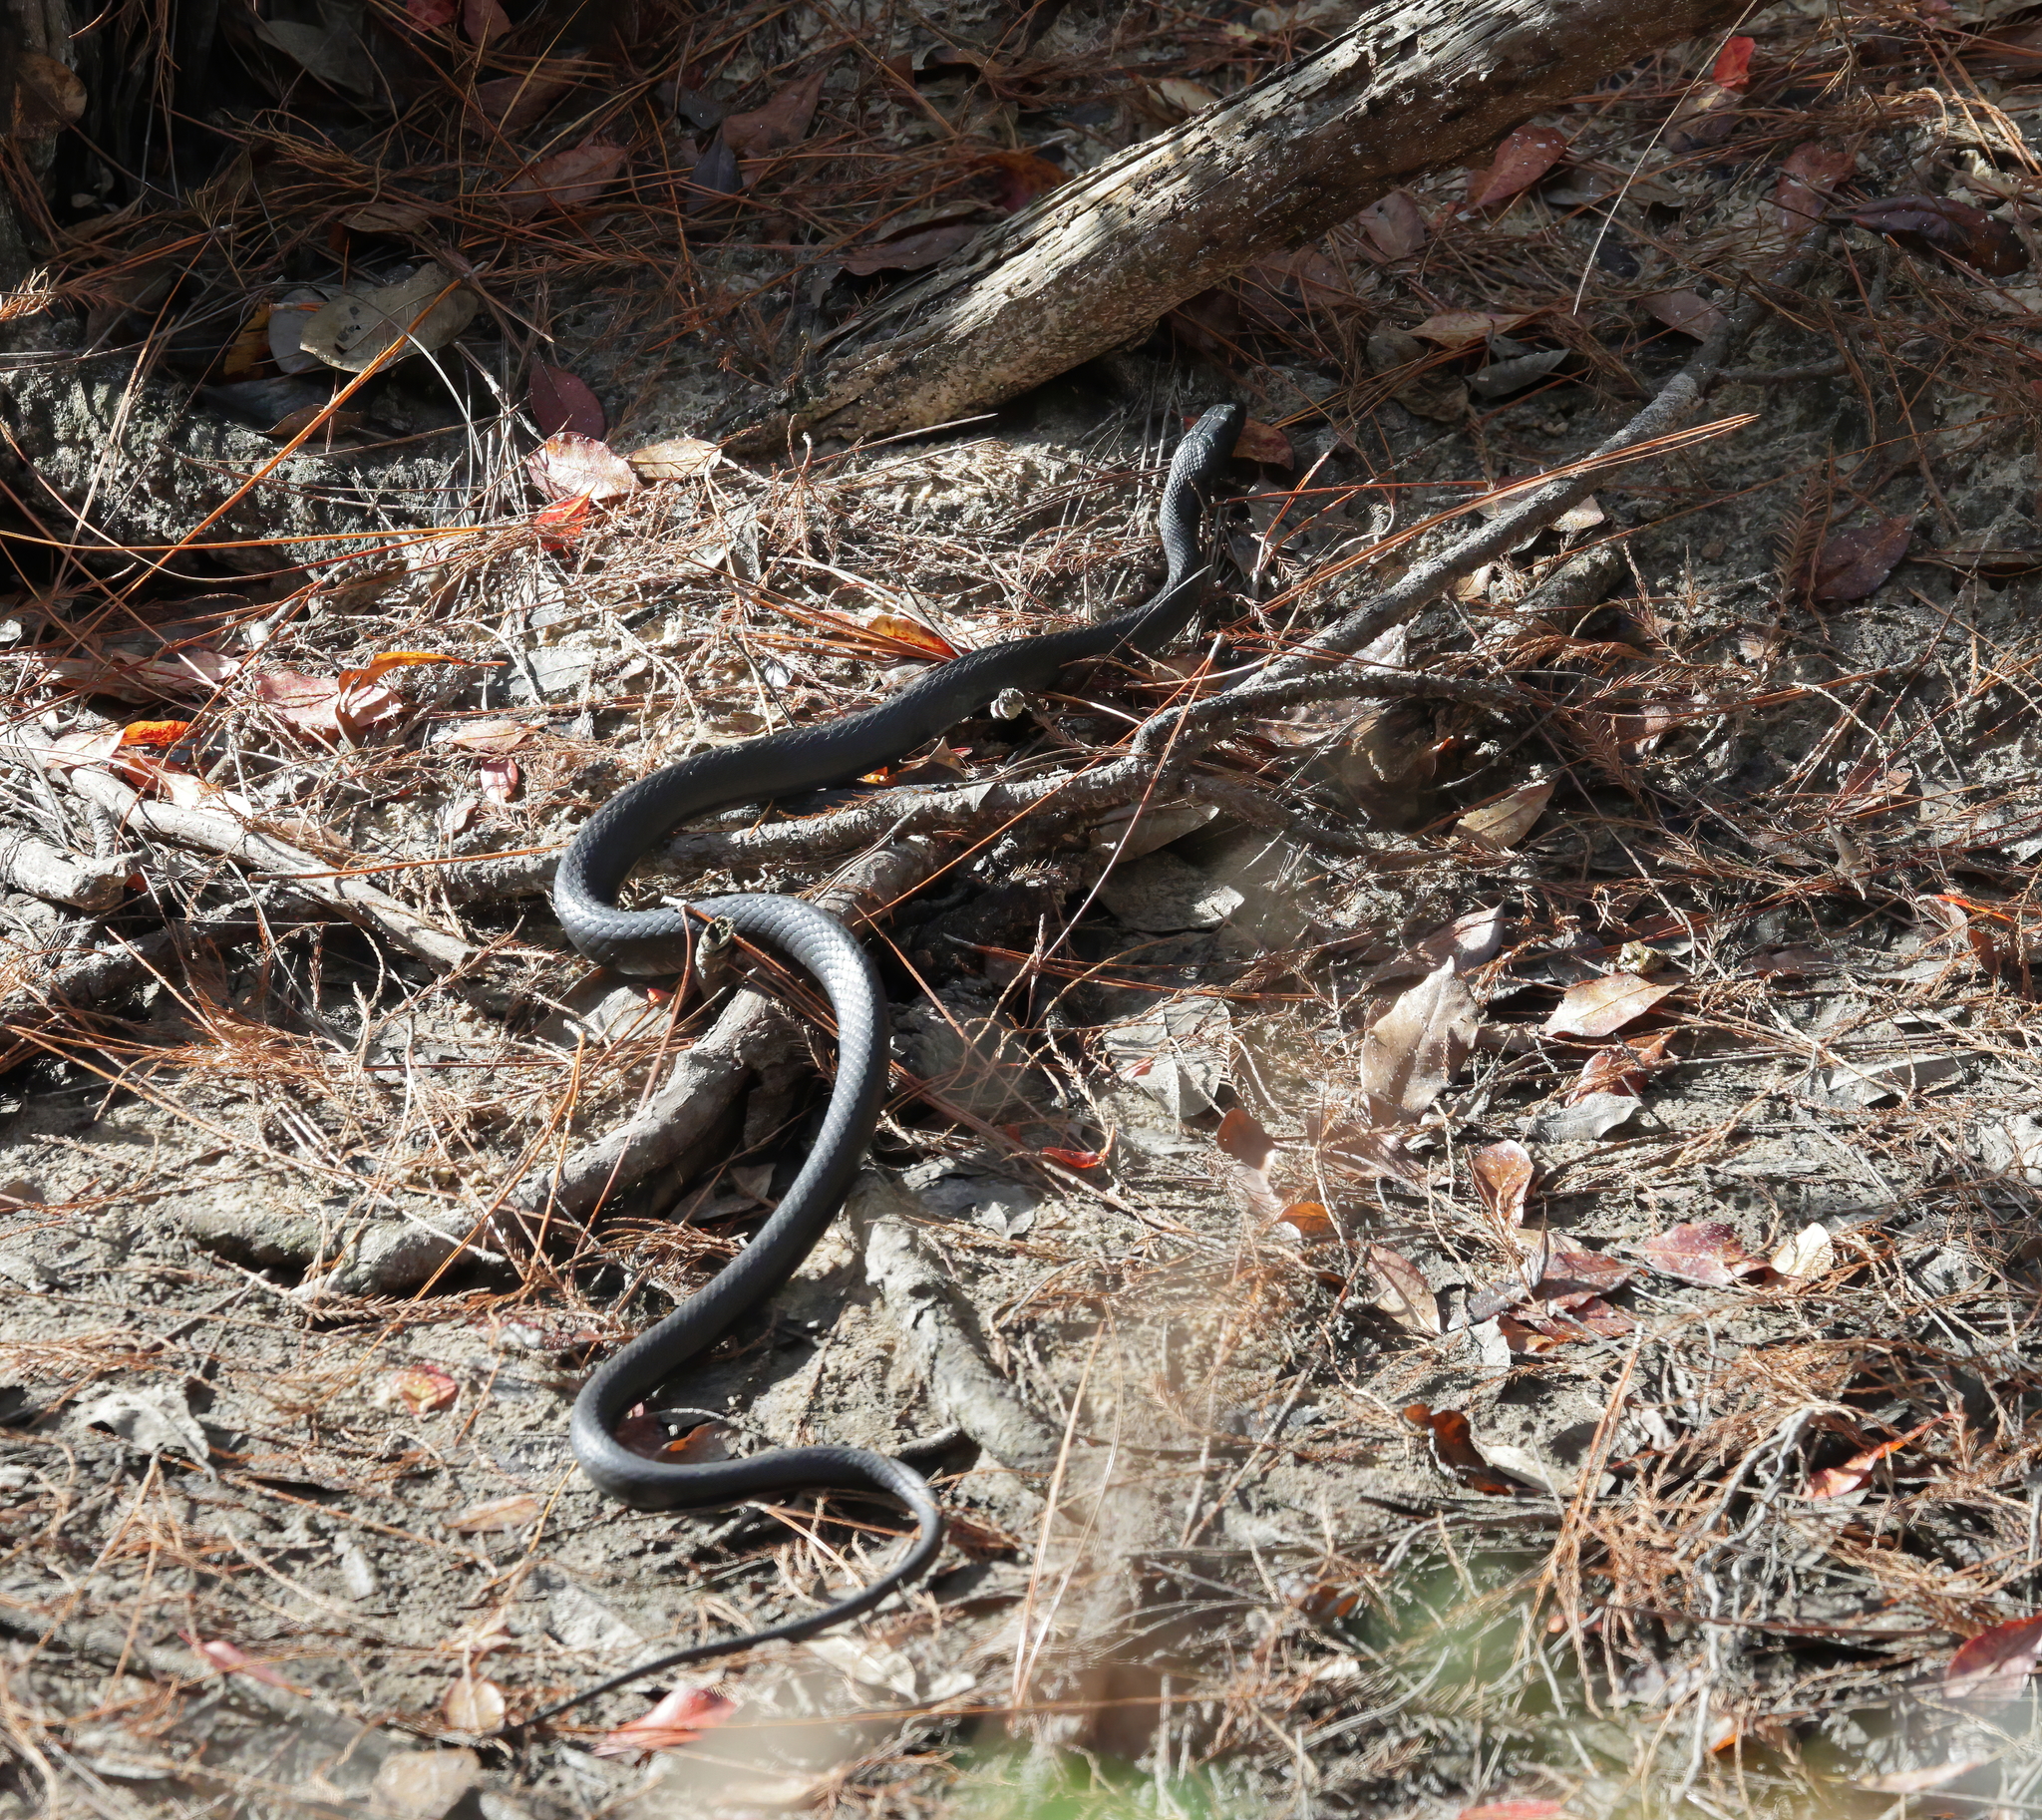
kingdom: Animalia
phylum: Chordata
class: Squamata
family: Colubridae
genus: Coluber
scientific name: Coluber constrictor
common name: Eastern racer
